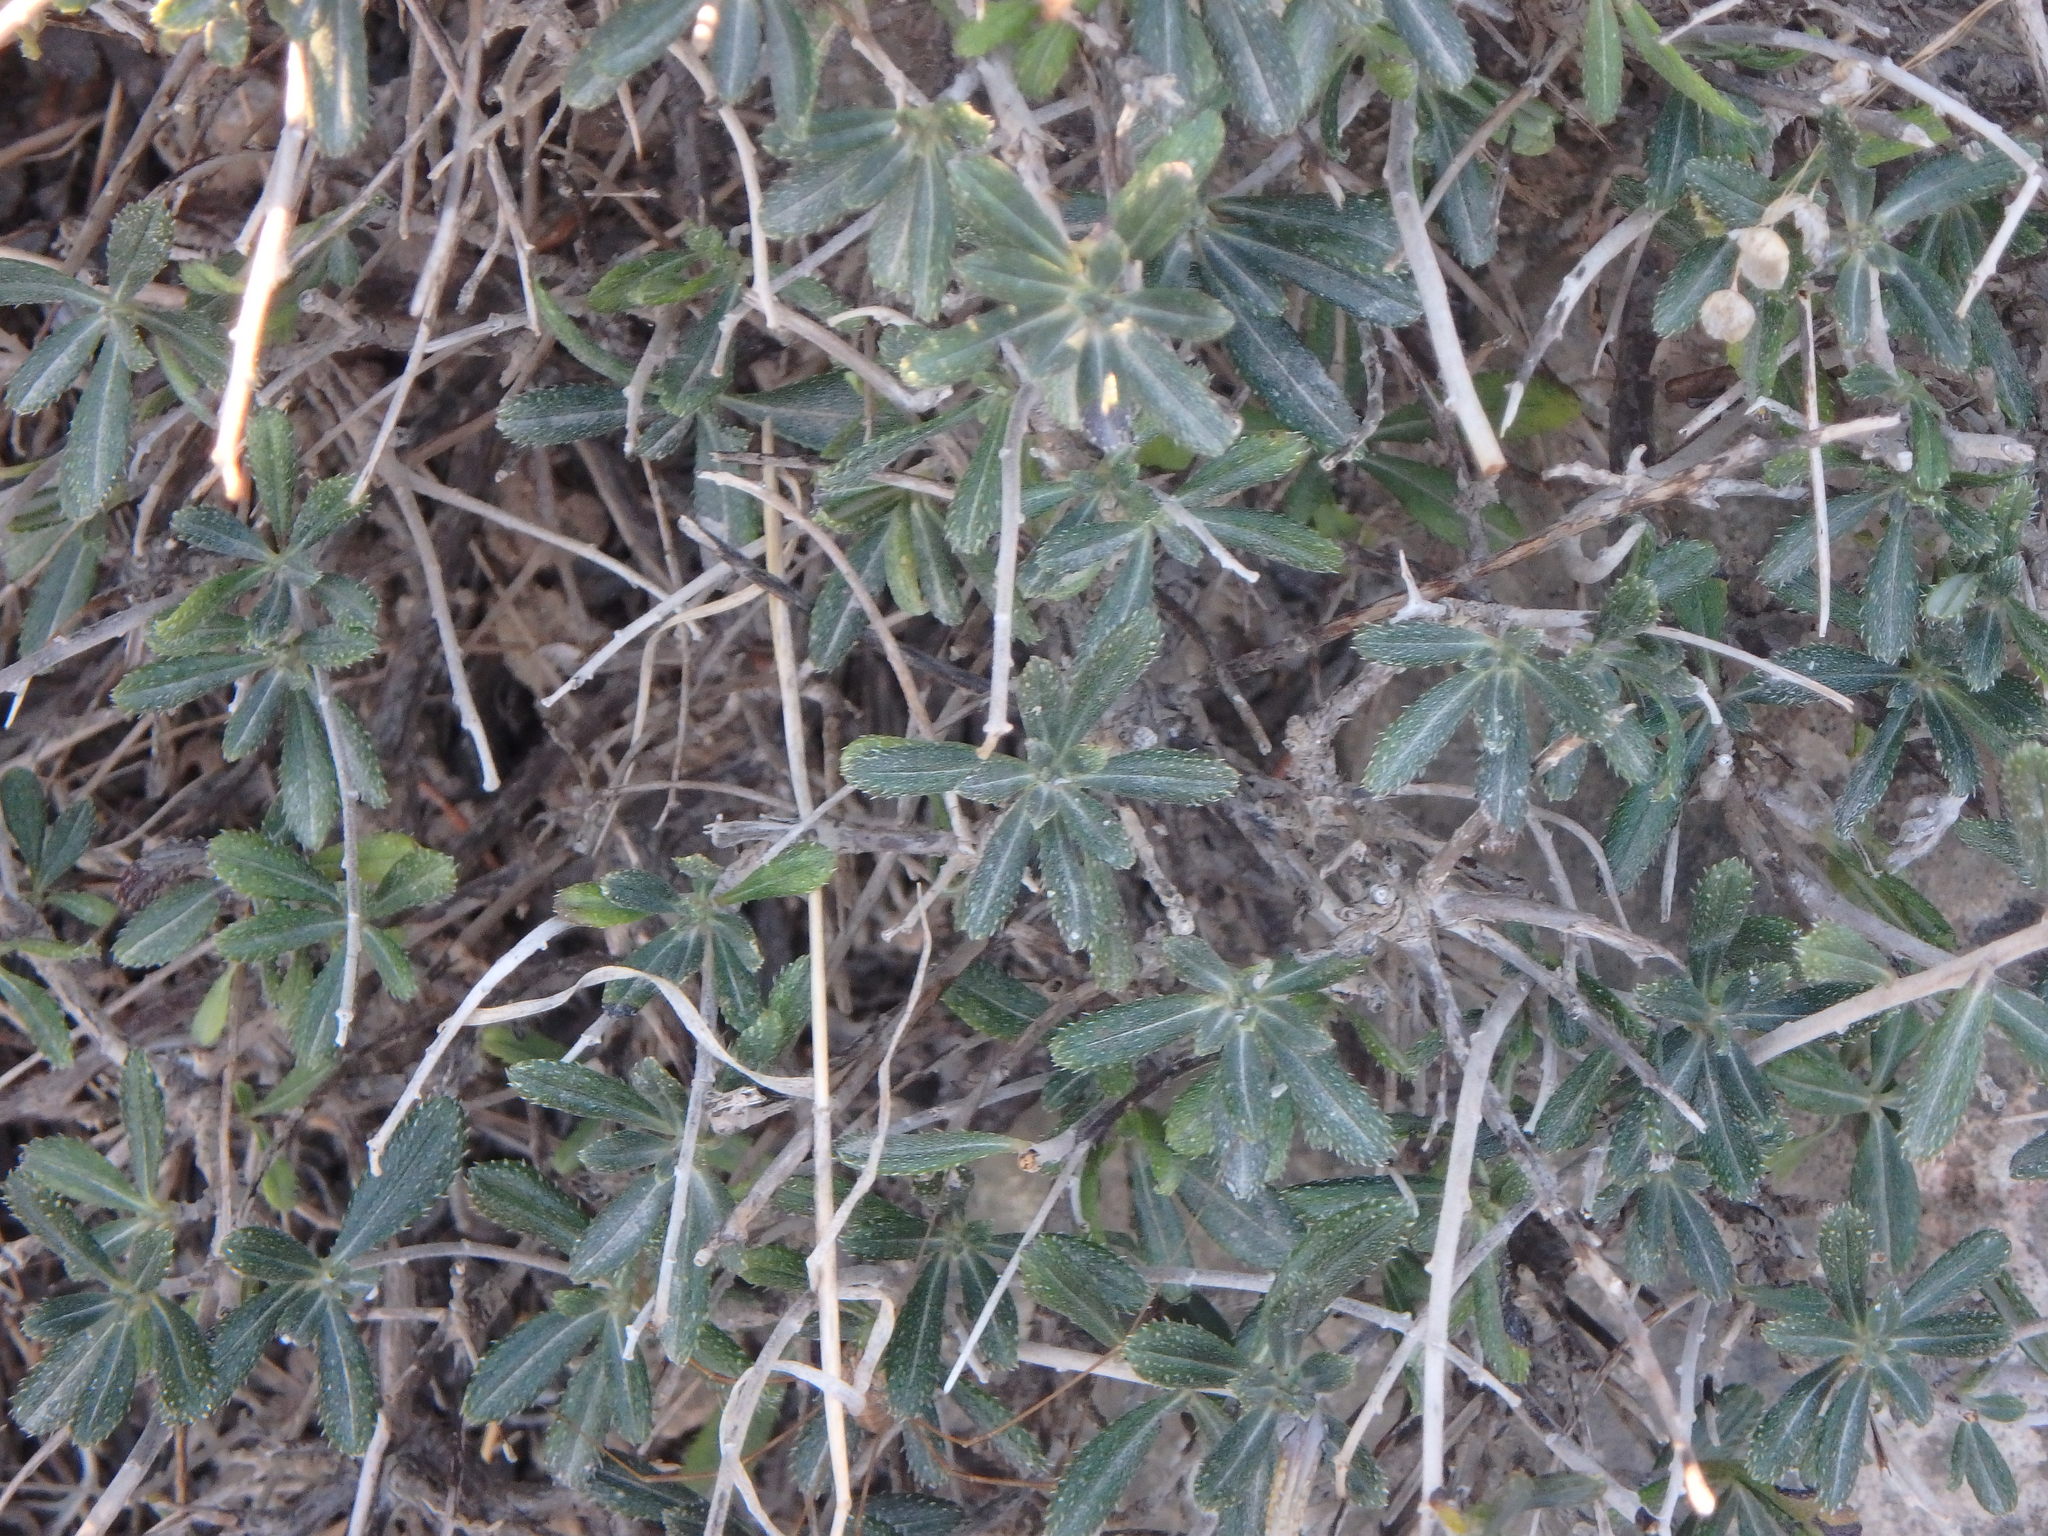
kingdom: Plantae
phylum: Tracheophyta
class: Magnoliopsida
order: Boraginales
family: Boraginaceae
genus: Lithodora
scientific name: Lithodora hispidula
